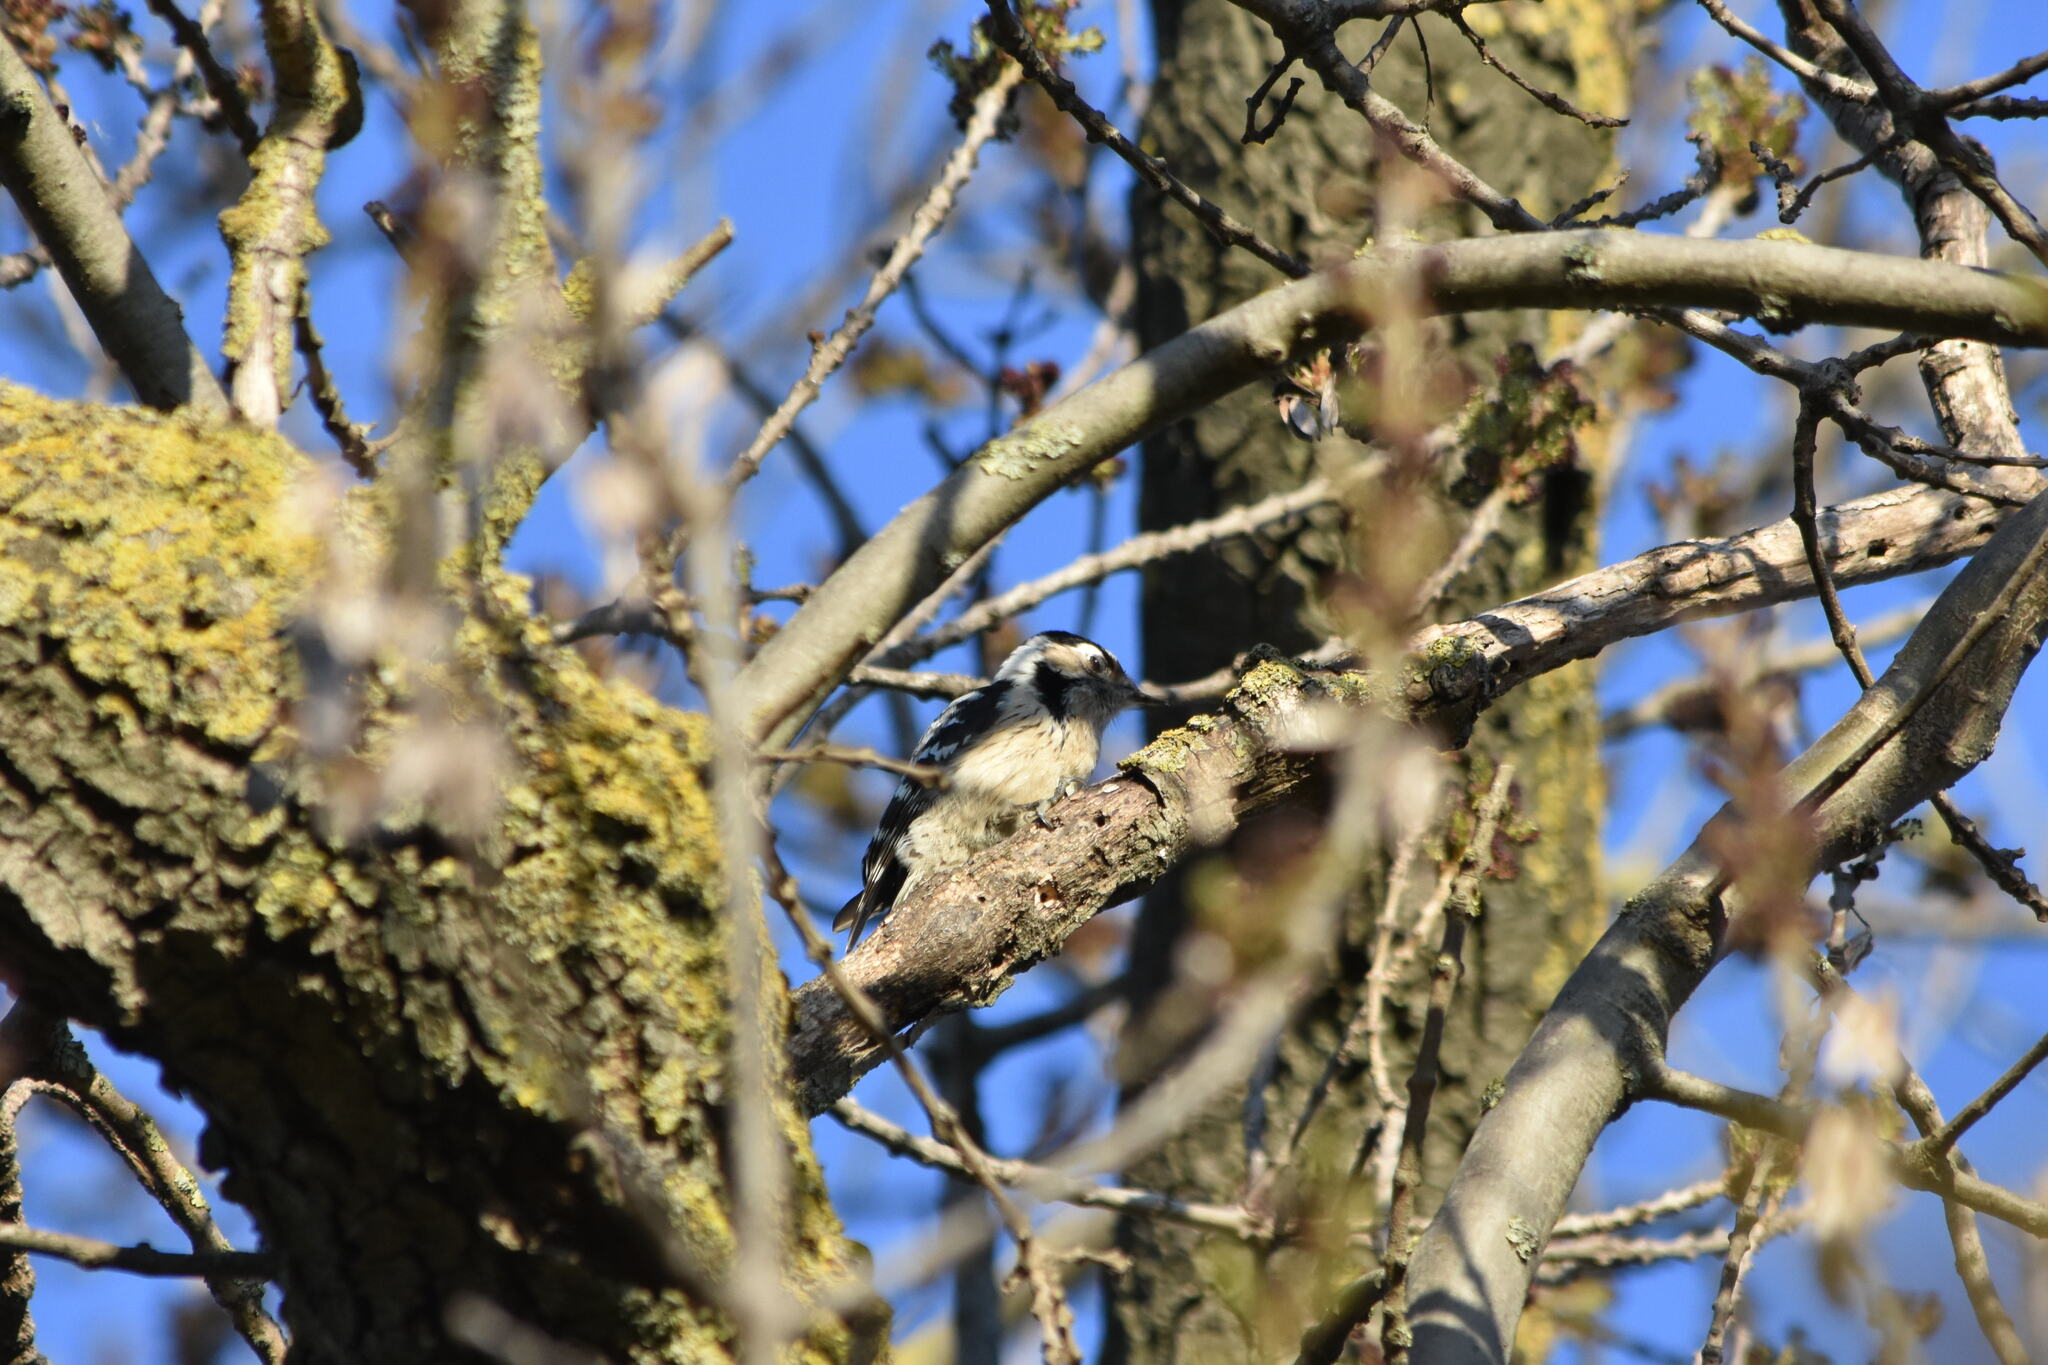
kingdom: Animalia
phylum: Chordata
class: Aves
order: Piciformes
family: Picidae
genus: Dryobates
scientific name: Dryobates minor
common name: Lesser spotted woodpecker
